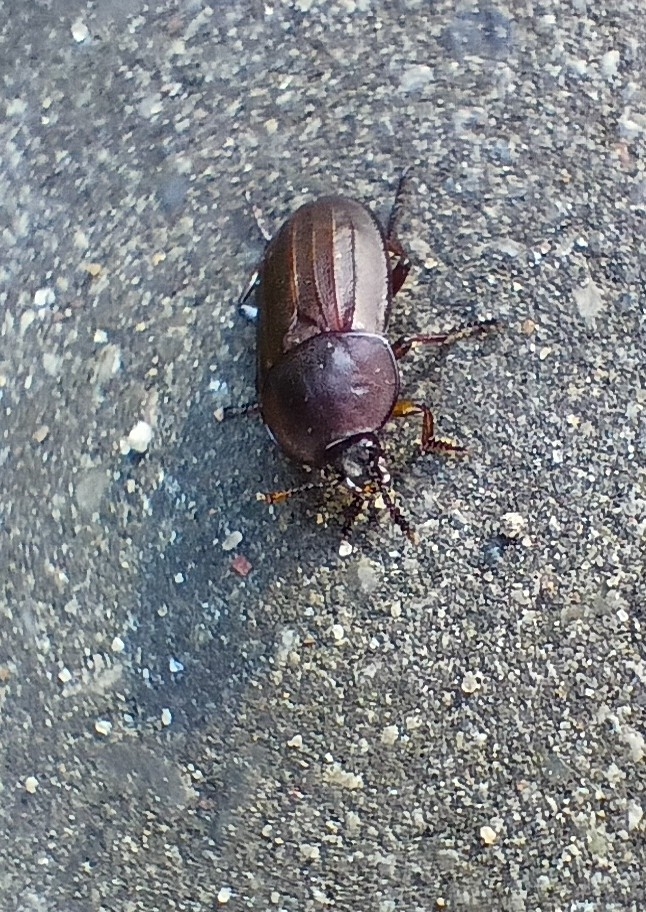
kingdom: Animalia
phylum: Arthropoda
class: Insecta
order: Coleoptera
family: Staphylinidae
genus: Silpha
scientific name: Silpha tristis
